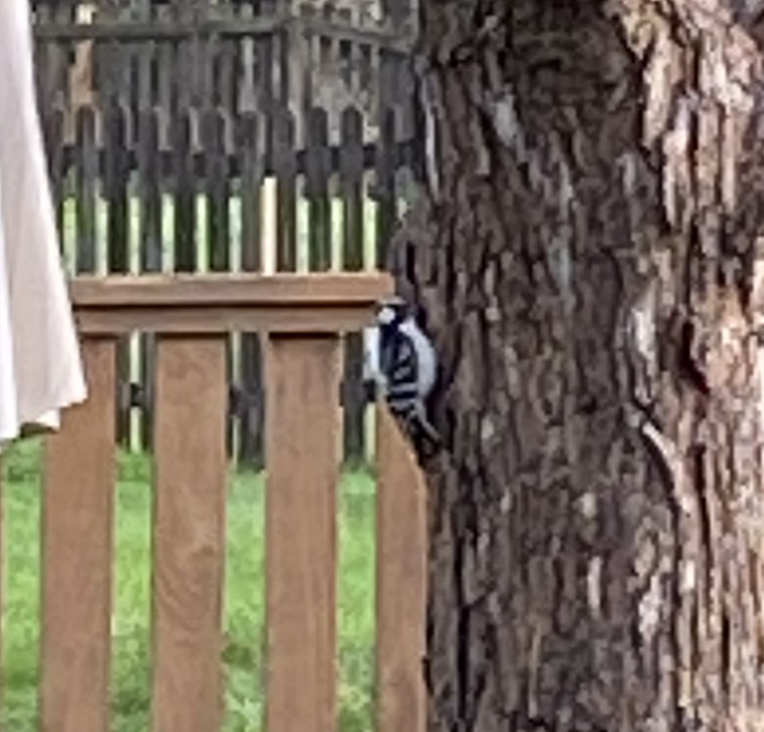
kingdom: Animalia
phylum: Chordata
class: Aves
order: Piciformes
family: Picidae
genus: Dryobates
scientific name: Dryobates pubescens
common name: Downy woodpecker
